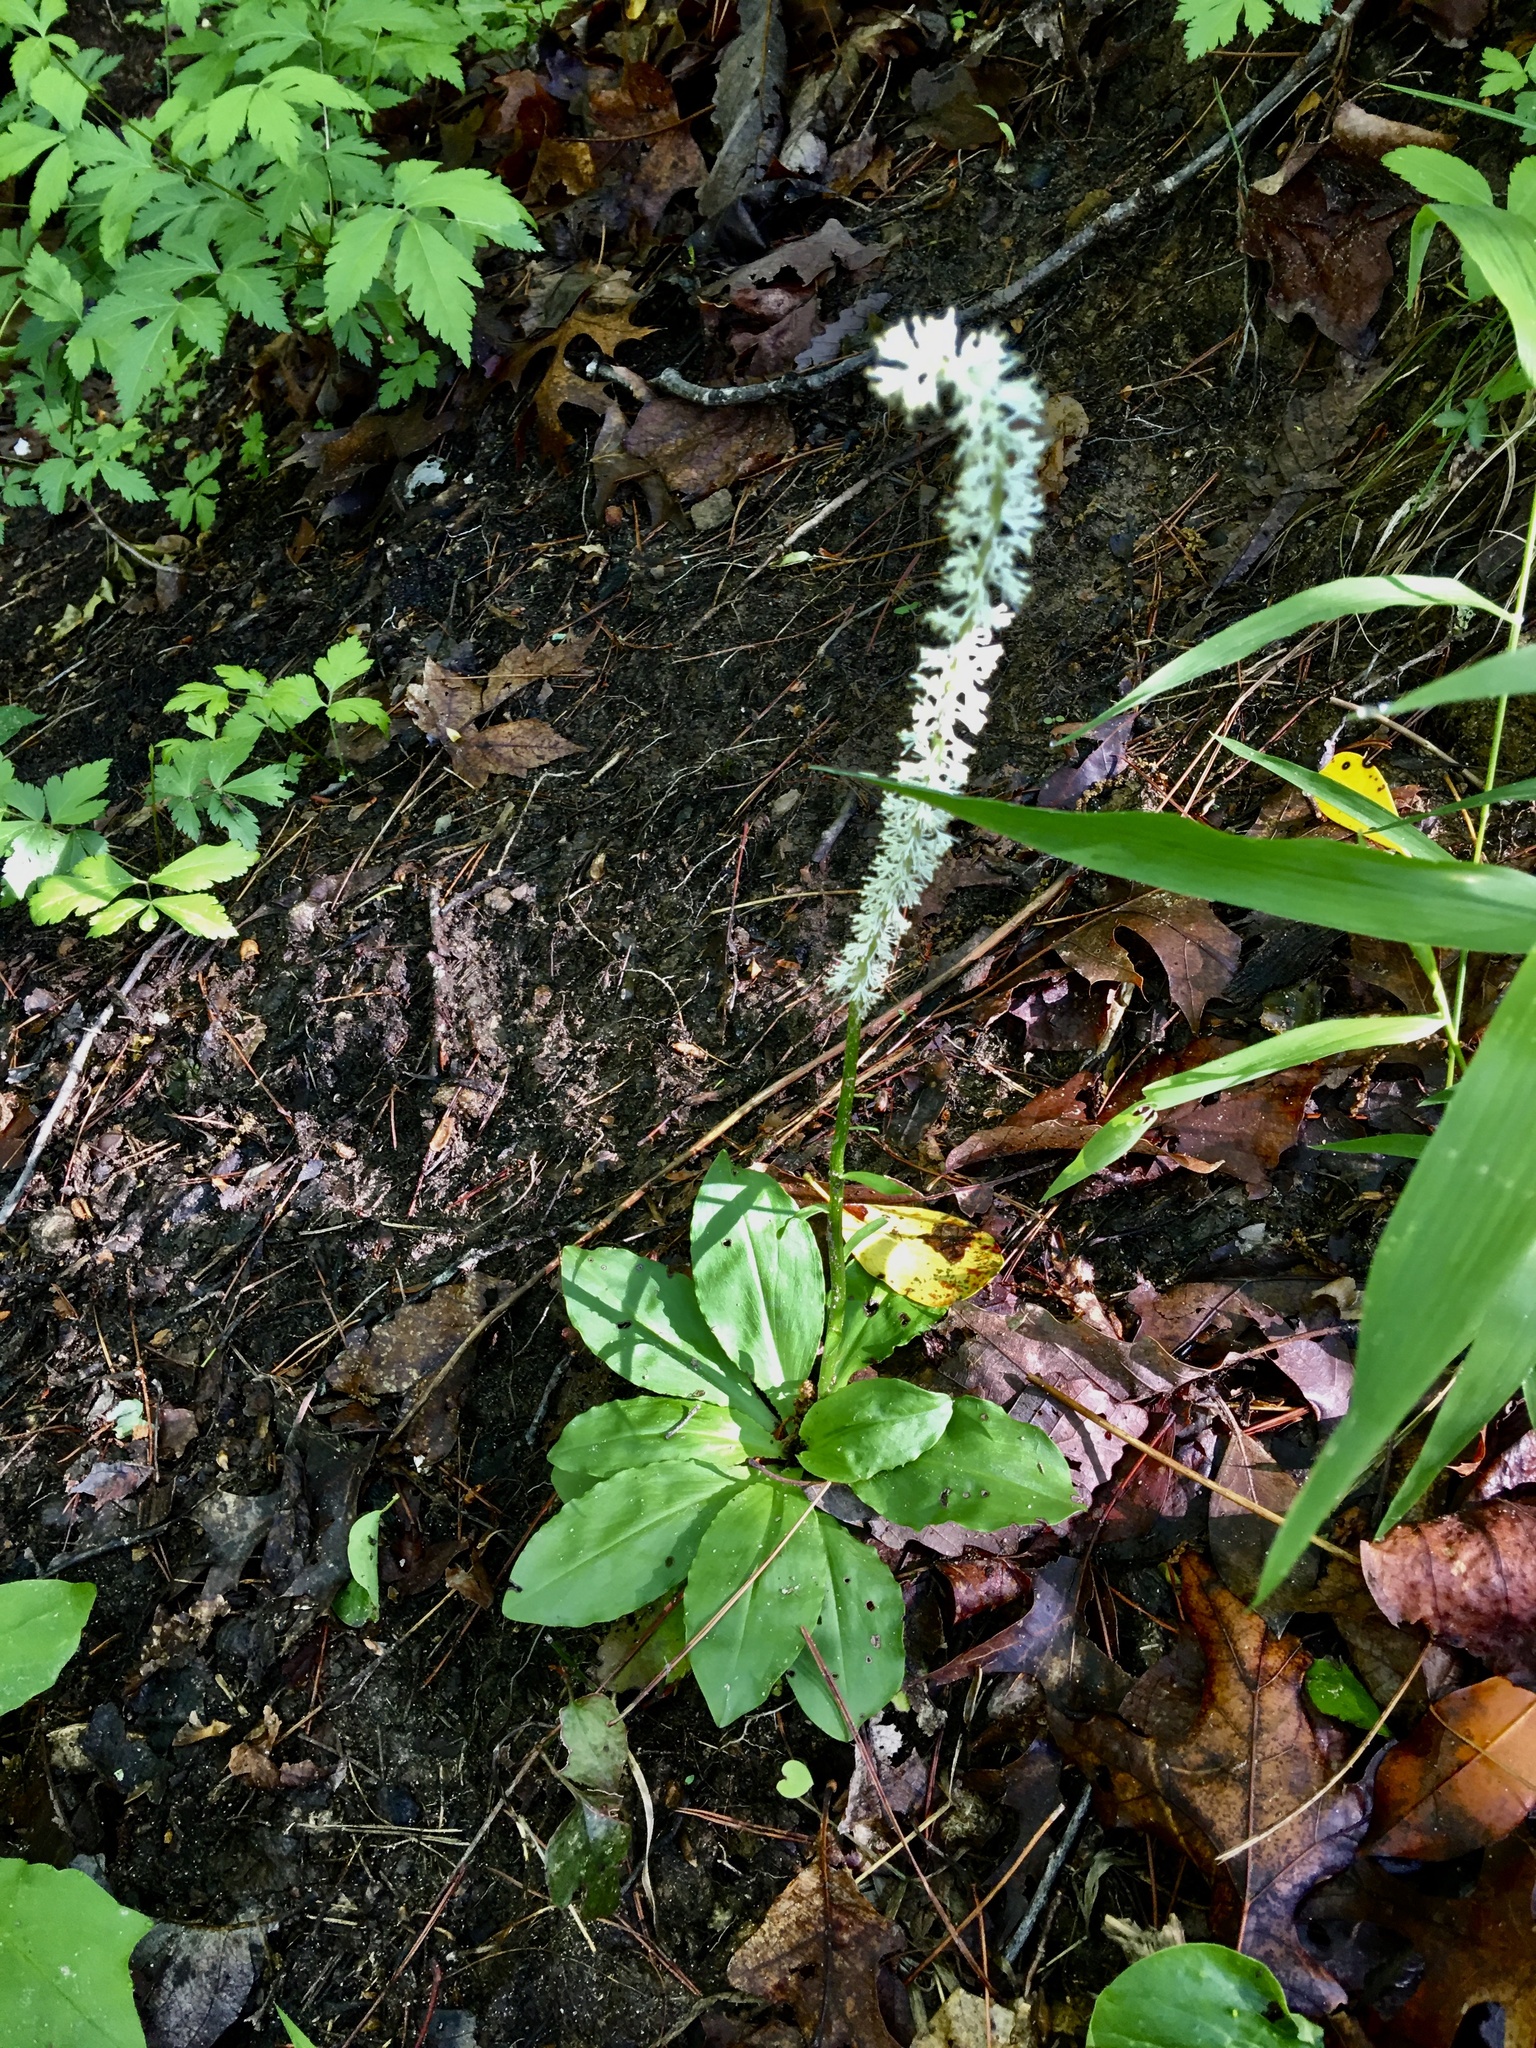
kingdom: Plantae
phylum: Tracheophyta
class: Liliopsida
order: Liliales
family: Melanthiaceae
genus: Chamaelirium
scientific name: Chamaelirium luteum
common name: Fairy-wand
